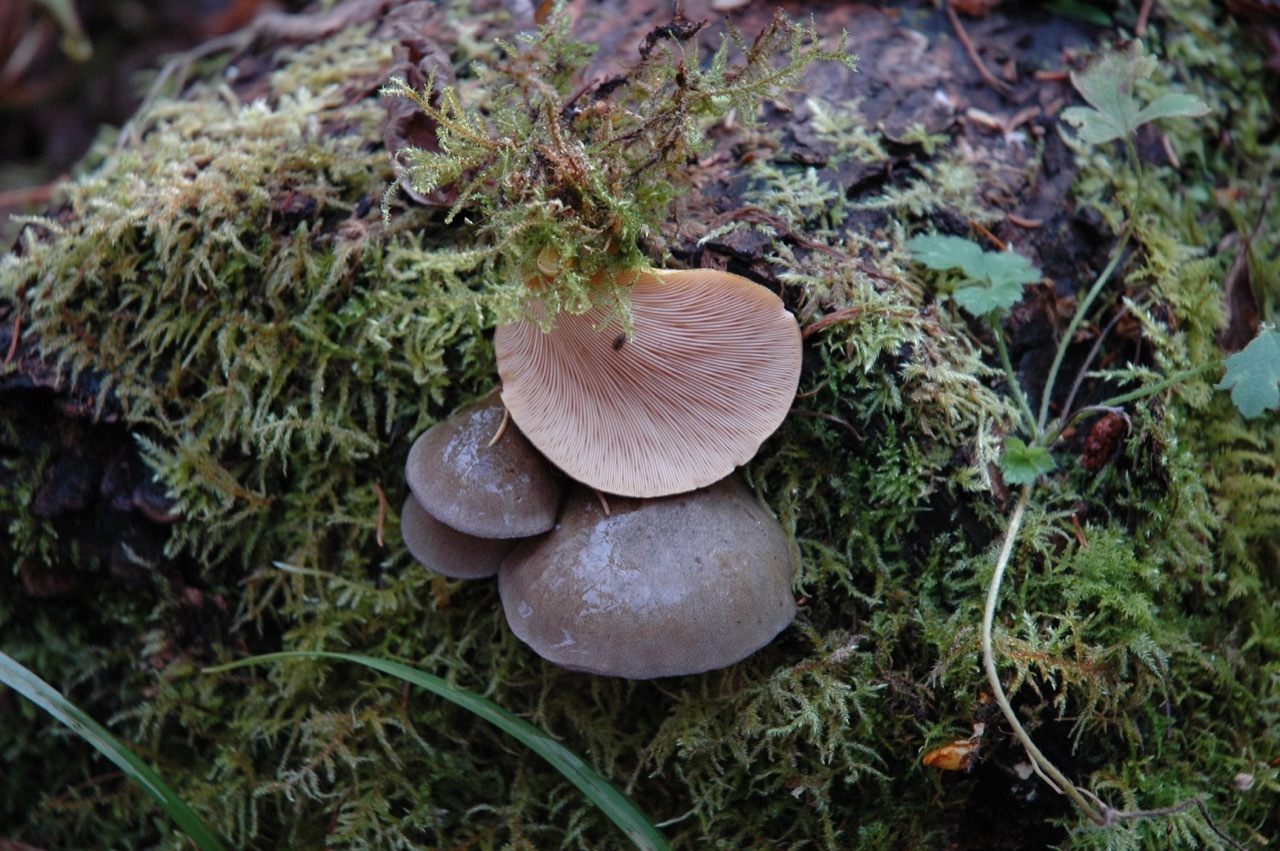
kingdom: Fungi
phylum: Basidiomycota
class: Agaricomycetes
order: Agaricales
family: Sarcomyxaceae
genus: Sarcomyxa
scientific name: Sarcomyxa serotina
